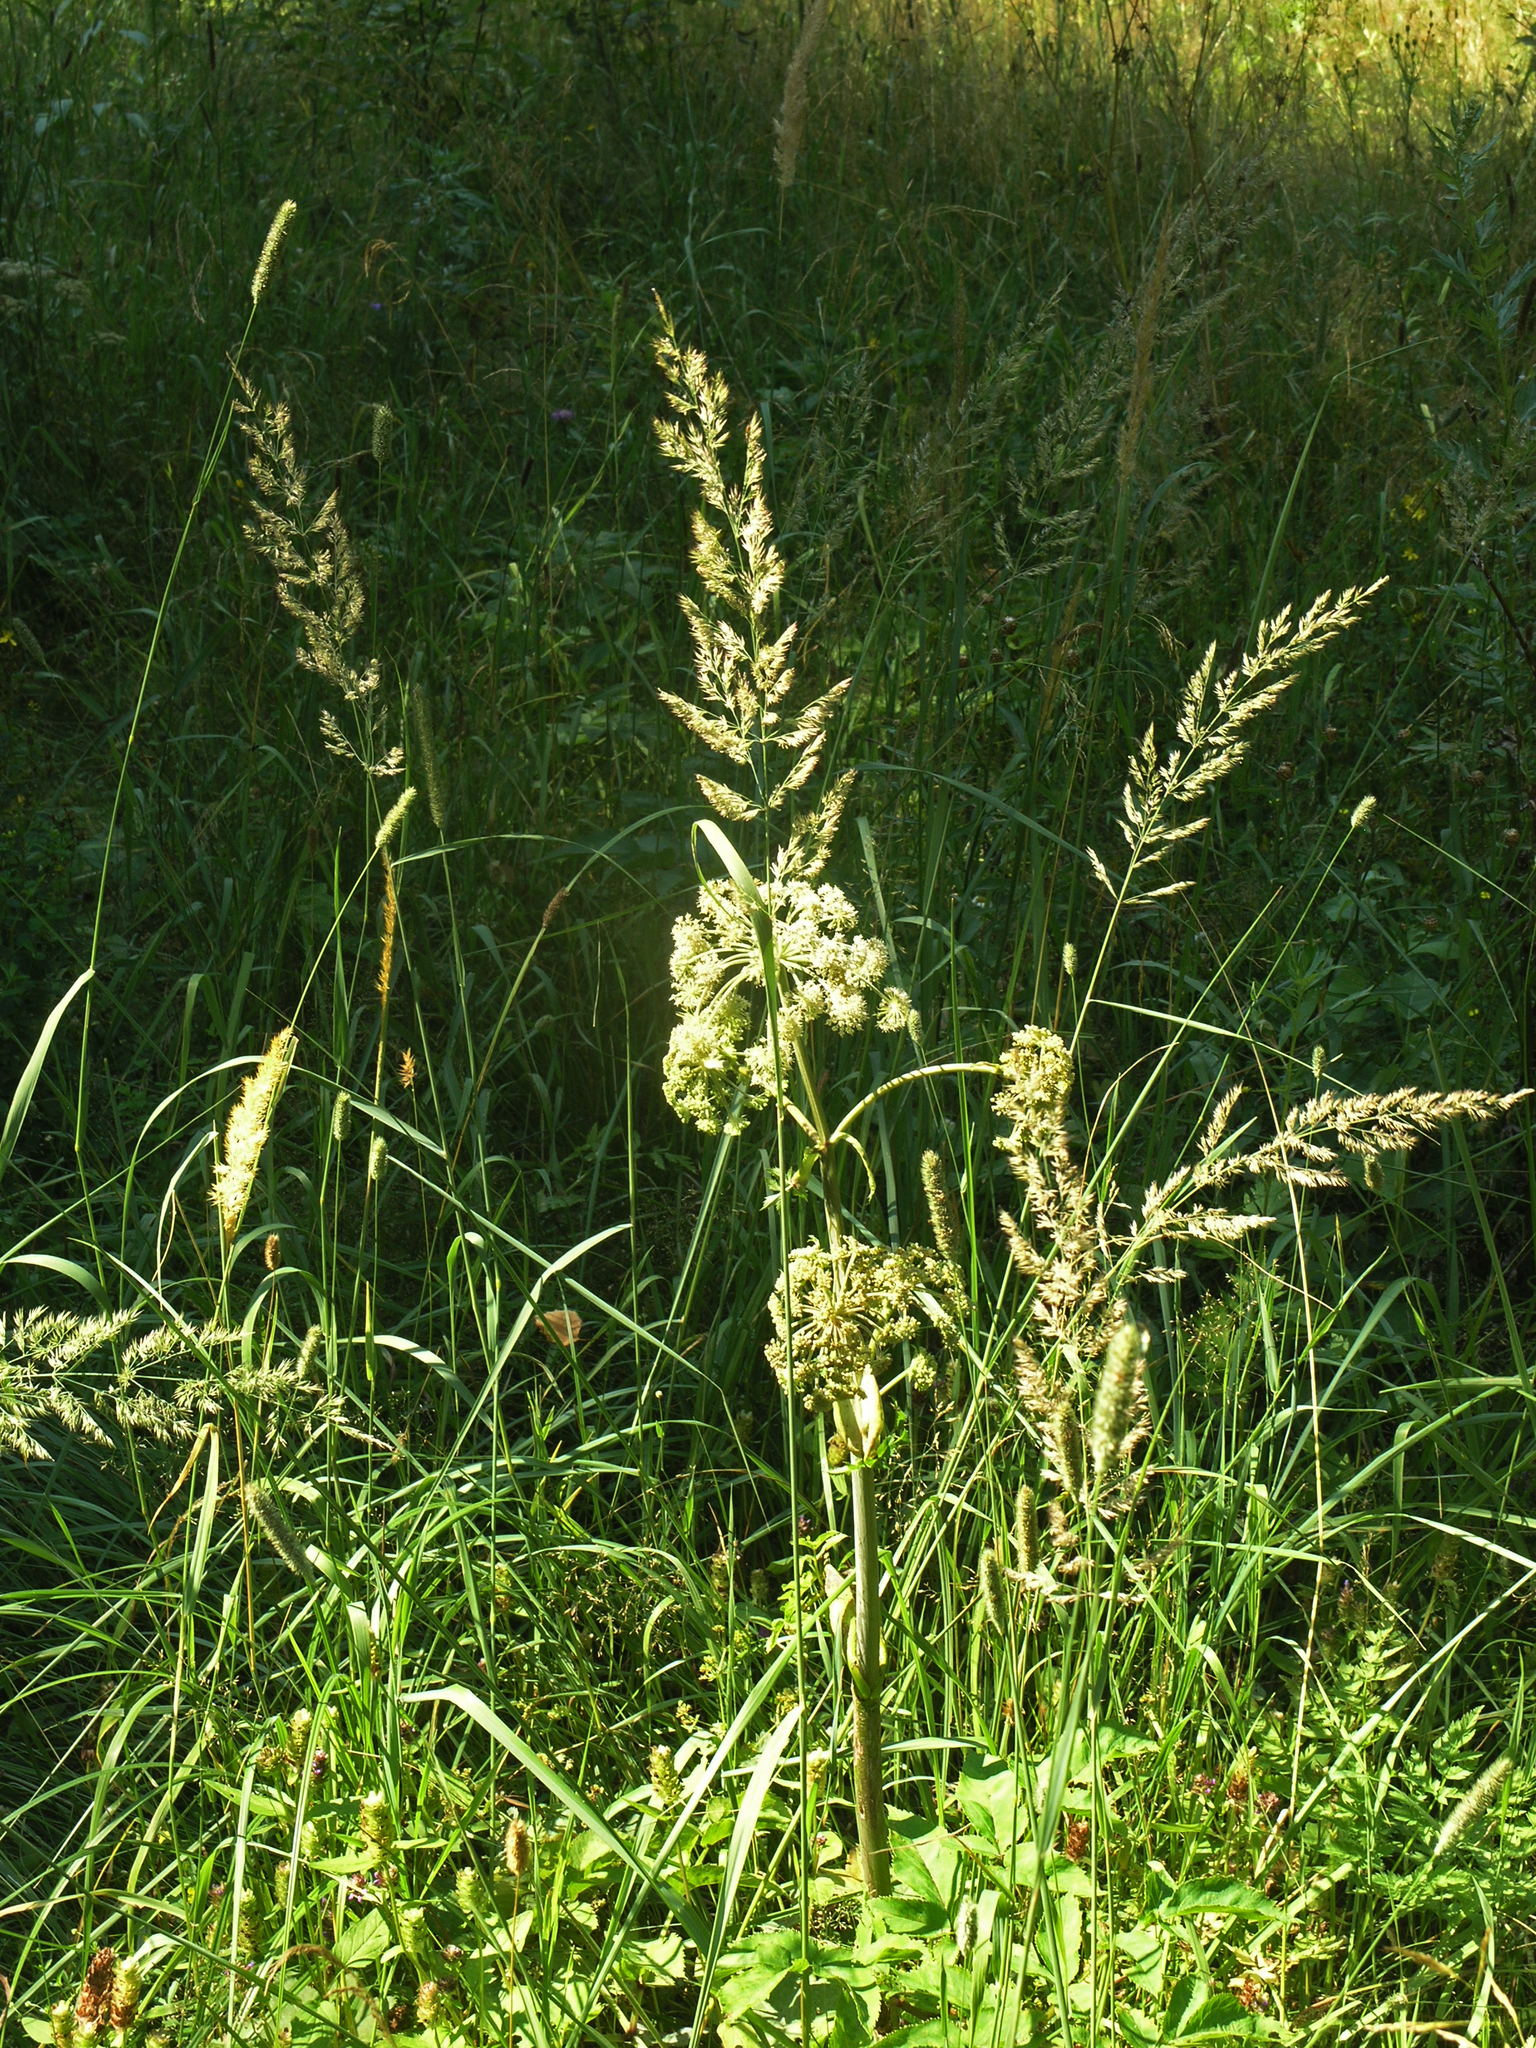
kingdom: Plantae
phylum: Tracheophyta
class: Liliopsida
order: Poales
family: Poaceae
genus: Calamagrostis
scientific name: Calamagrostis arundinacea
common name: Metskastik
